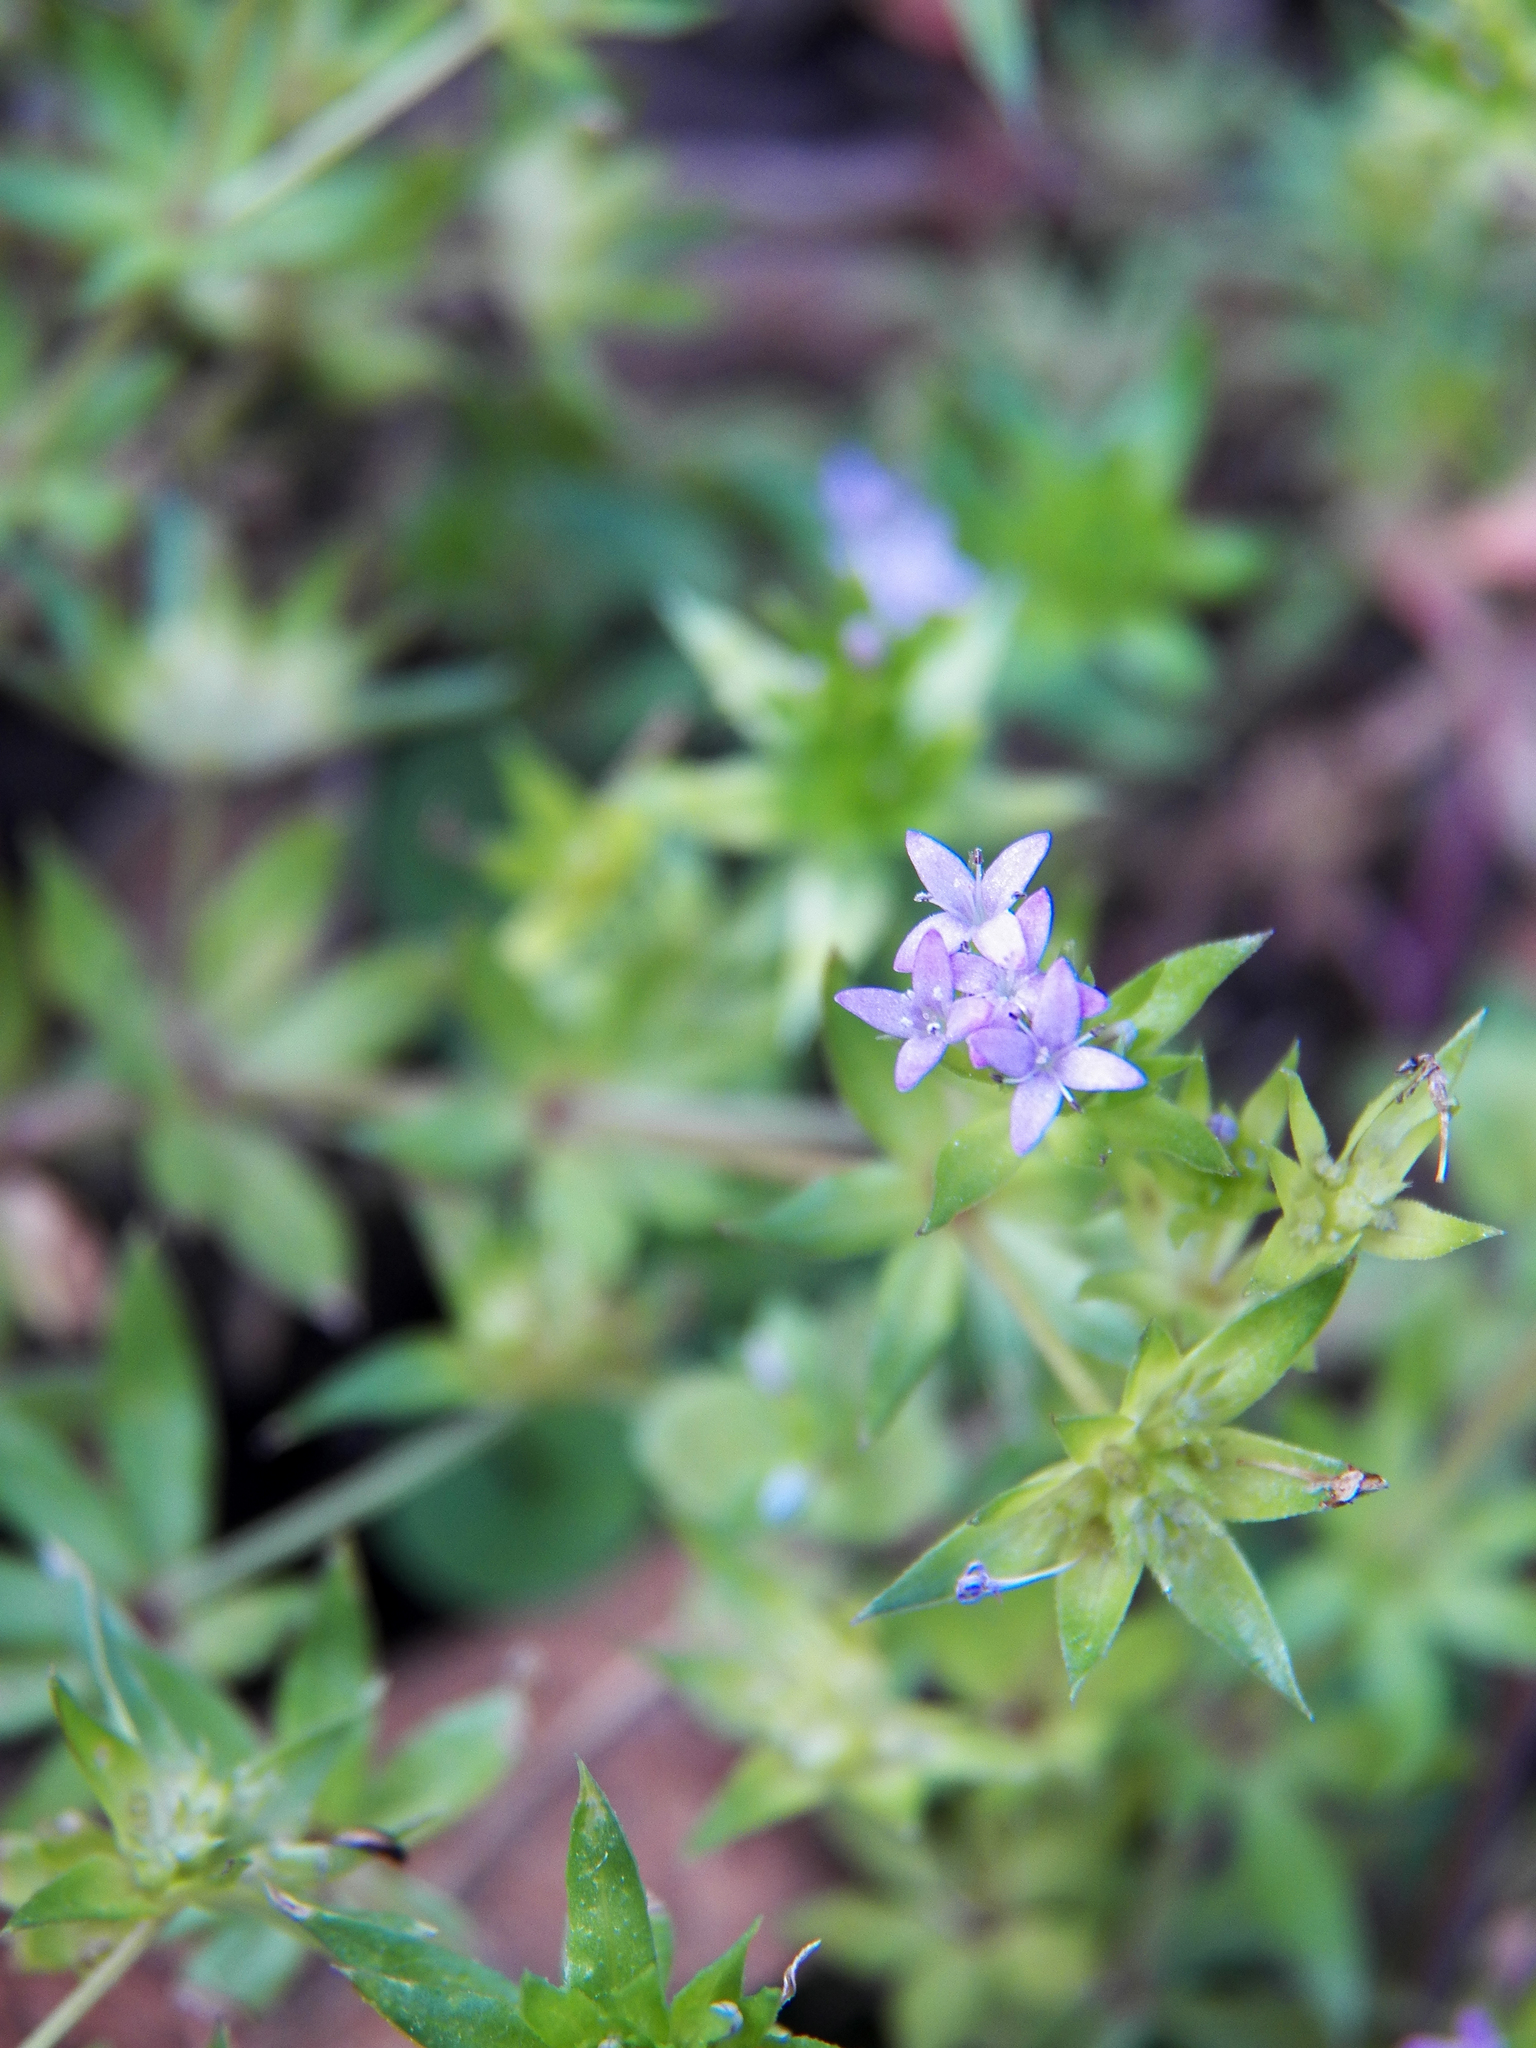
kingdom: Plantae
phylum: Tracheophyta
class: Magnoliopsida
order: Gentianales
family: Rubiaceae
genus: Sherardia
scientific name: Sherardia arvensis
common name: Field madder
